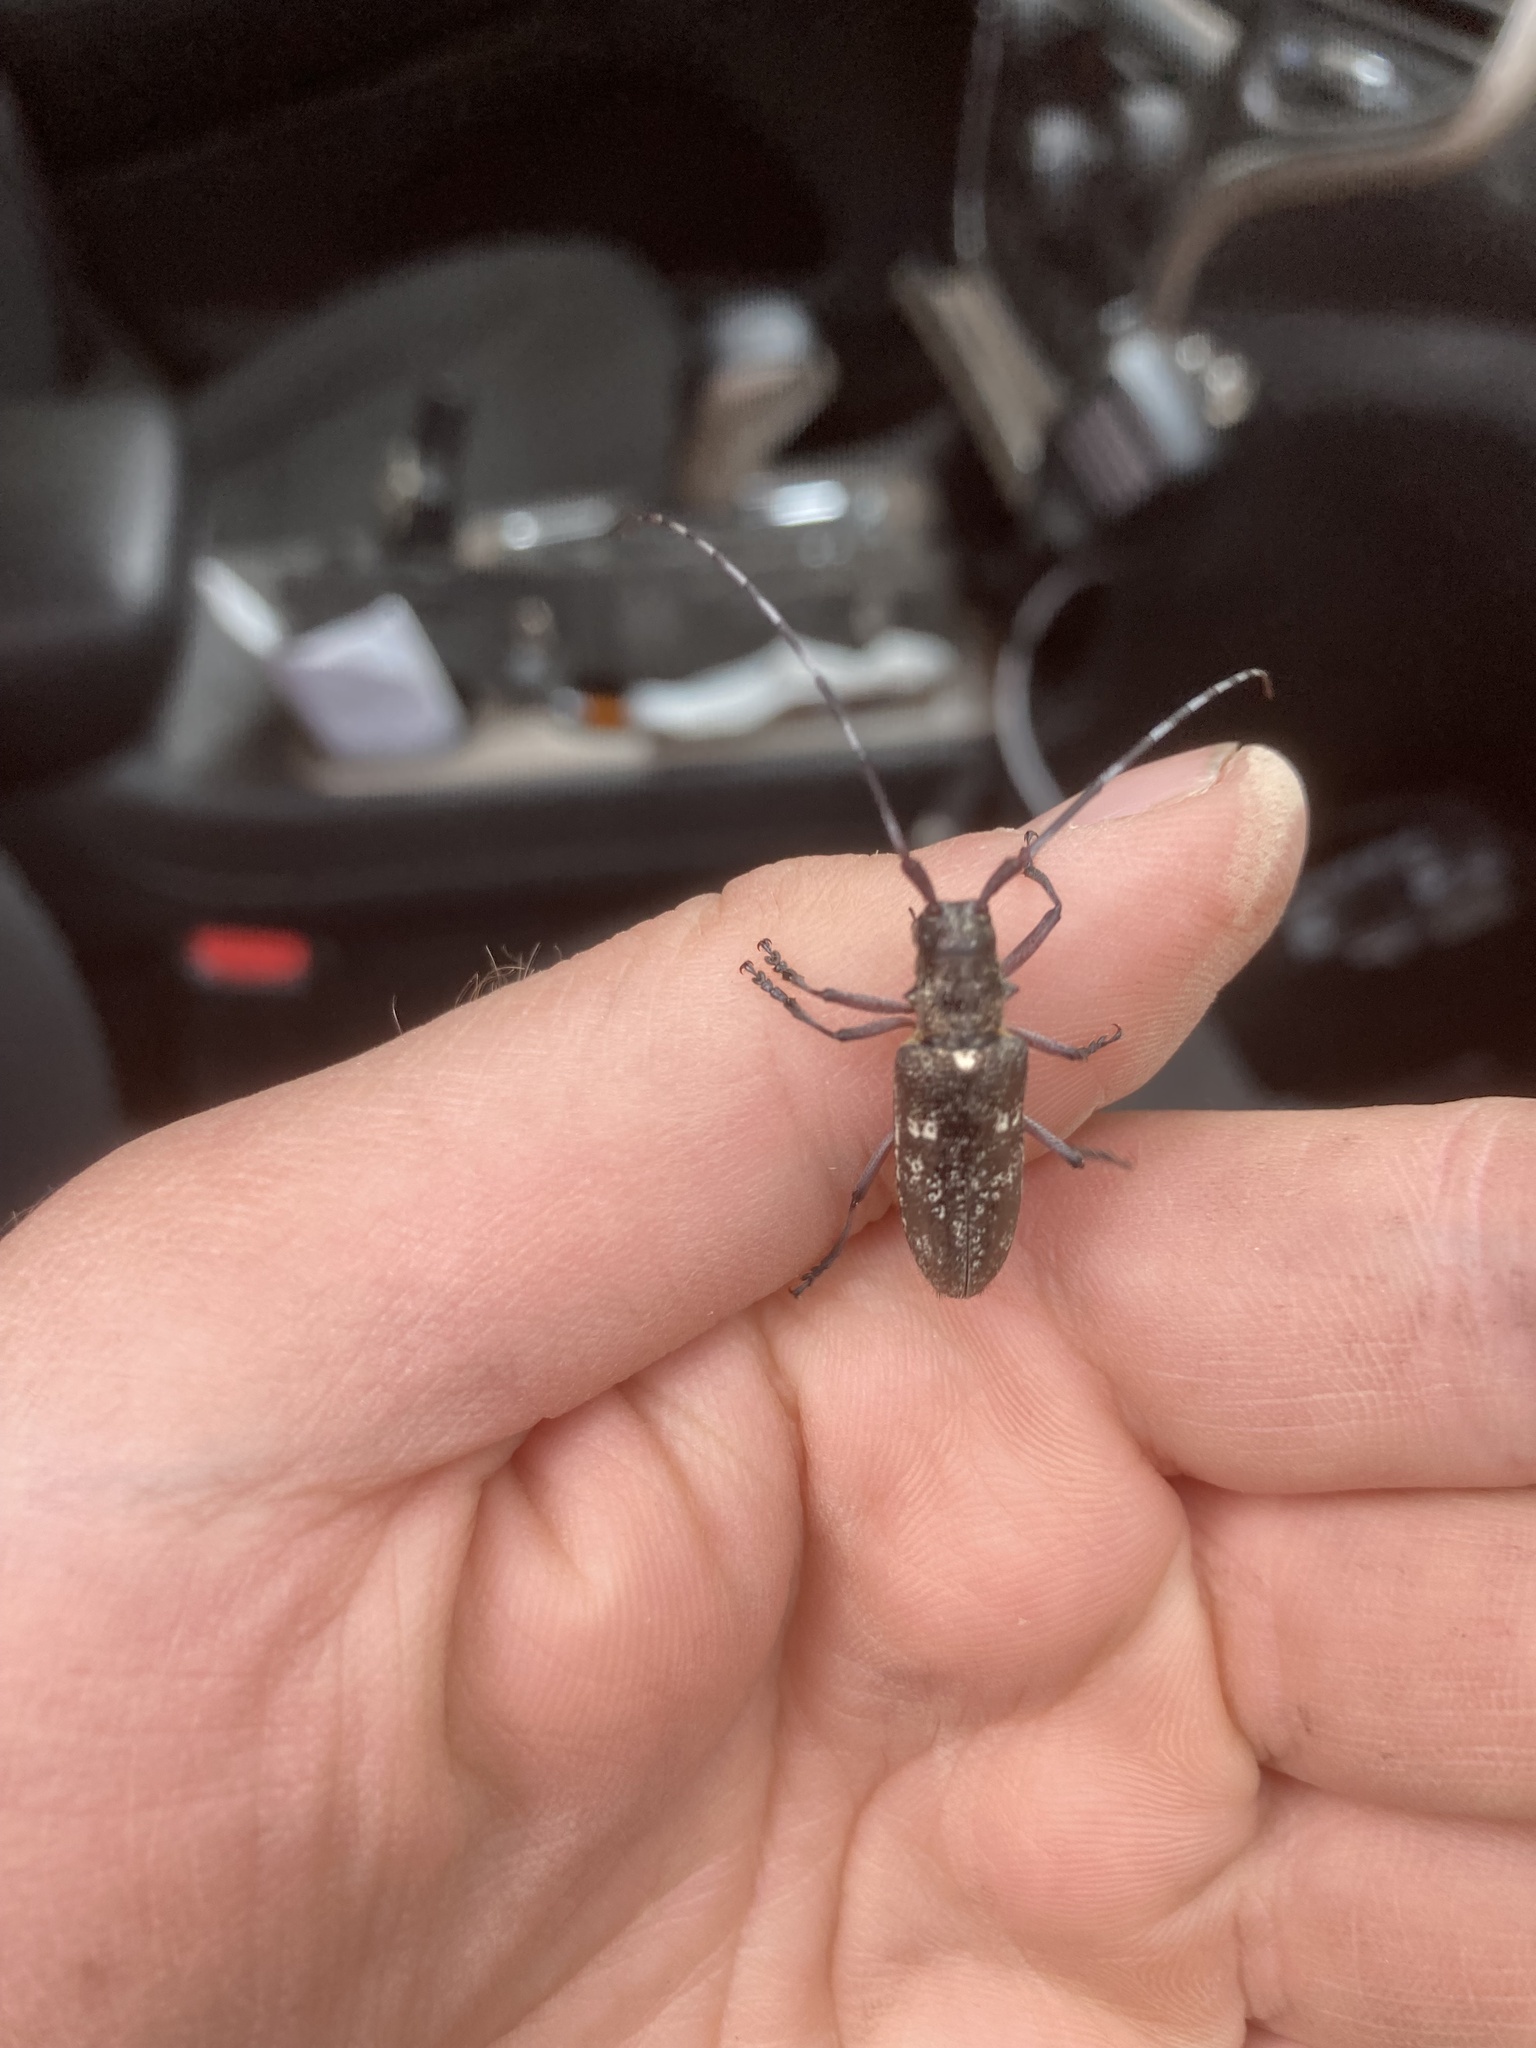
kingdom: Animalia
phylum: Arthropoda
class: Insecta
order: Coleoptera
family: Cerambycidae
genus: Monochamus
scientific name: Monochamus scutellatus
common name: White-spotted sawyer beetle
